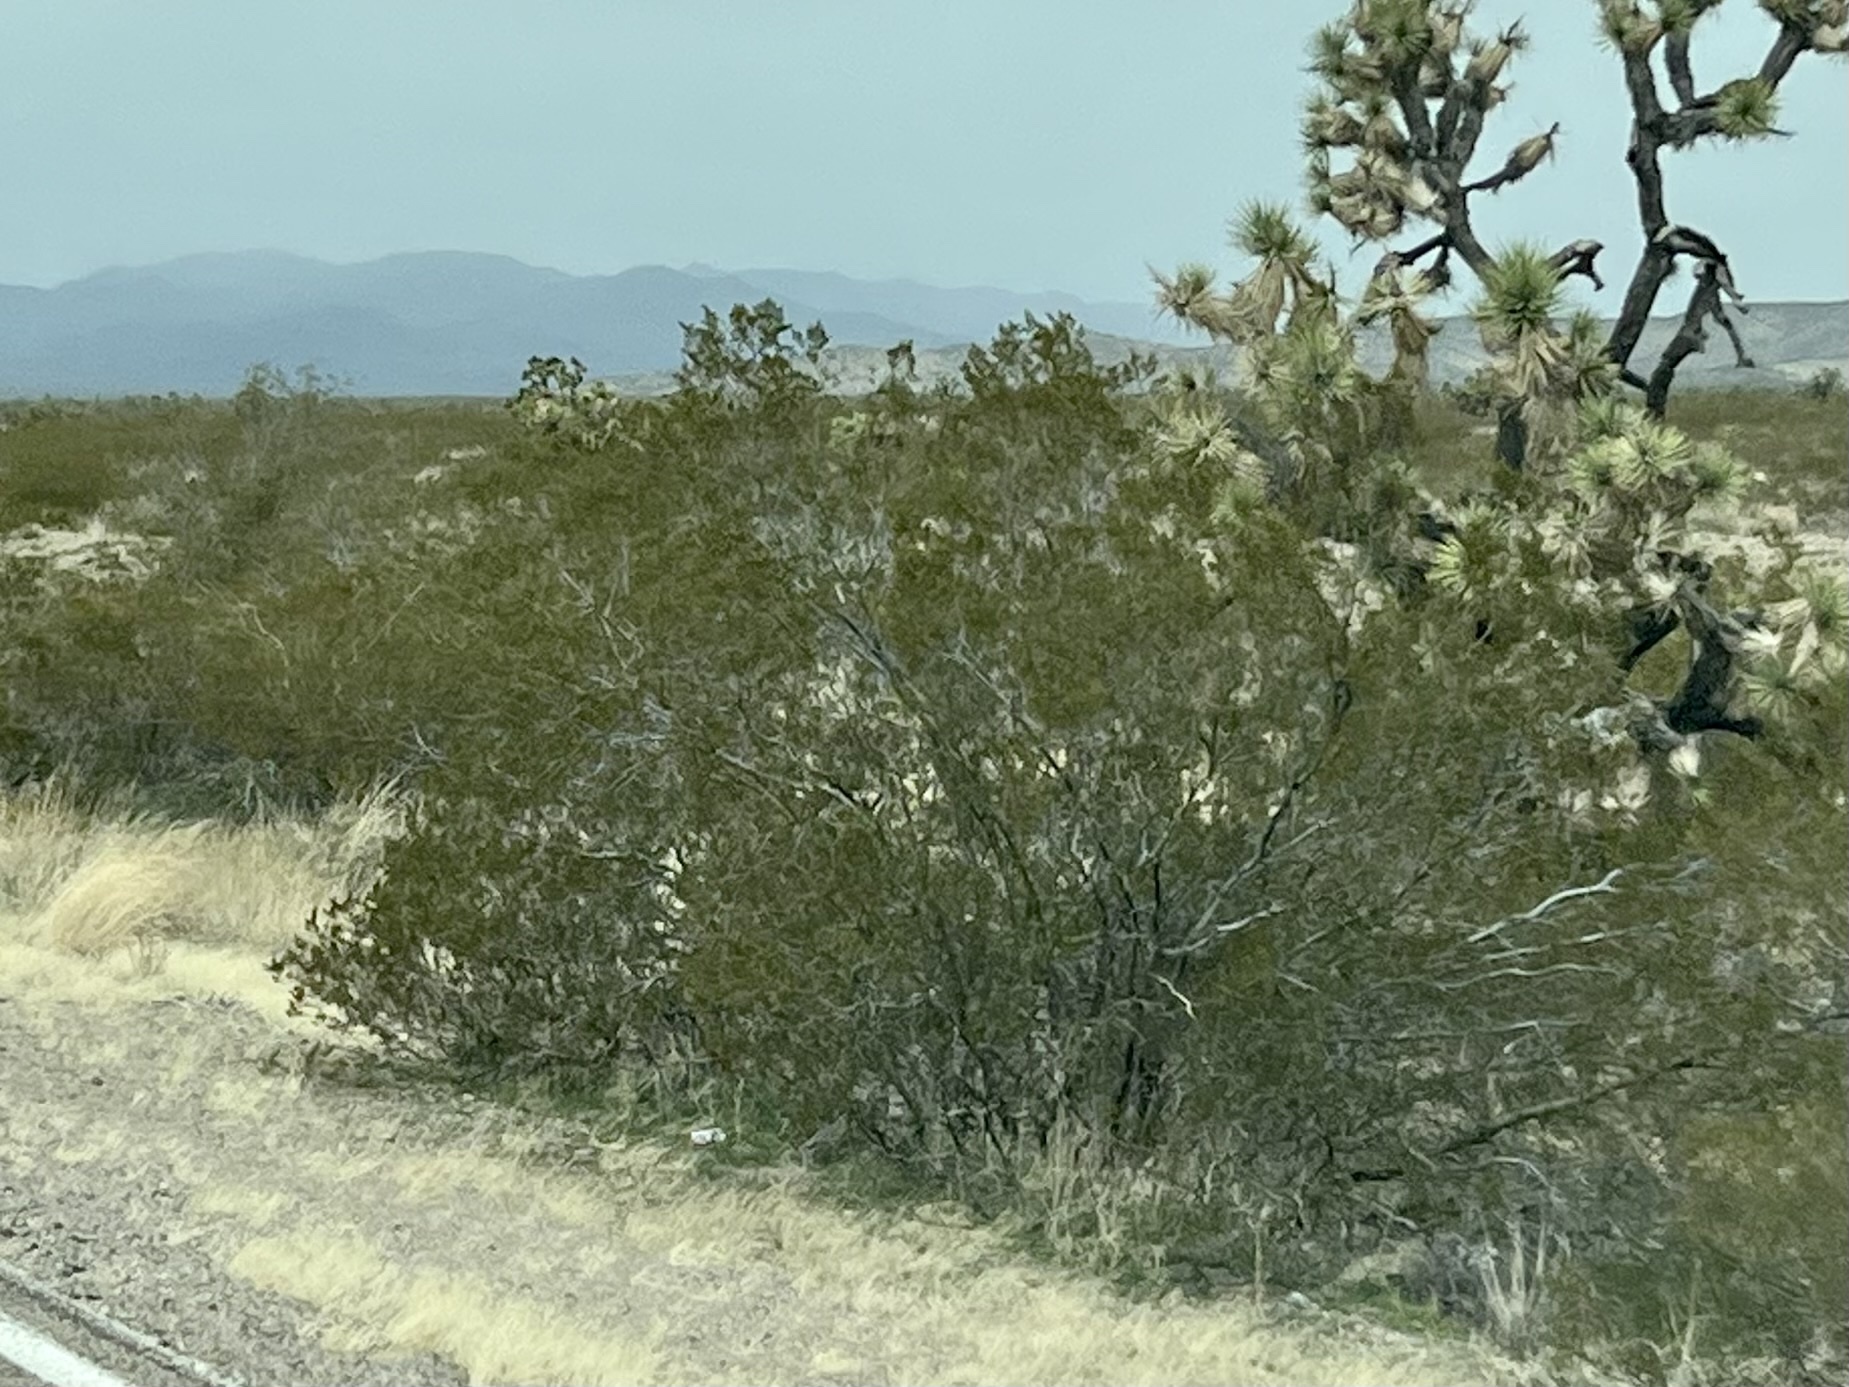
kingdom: Plantae
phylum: Tracheophyta
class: Magnoliopsida
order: Zygophyllales
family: Zygophyllaceae
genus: Larrea
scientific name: Larrea tridentata
